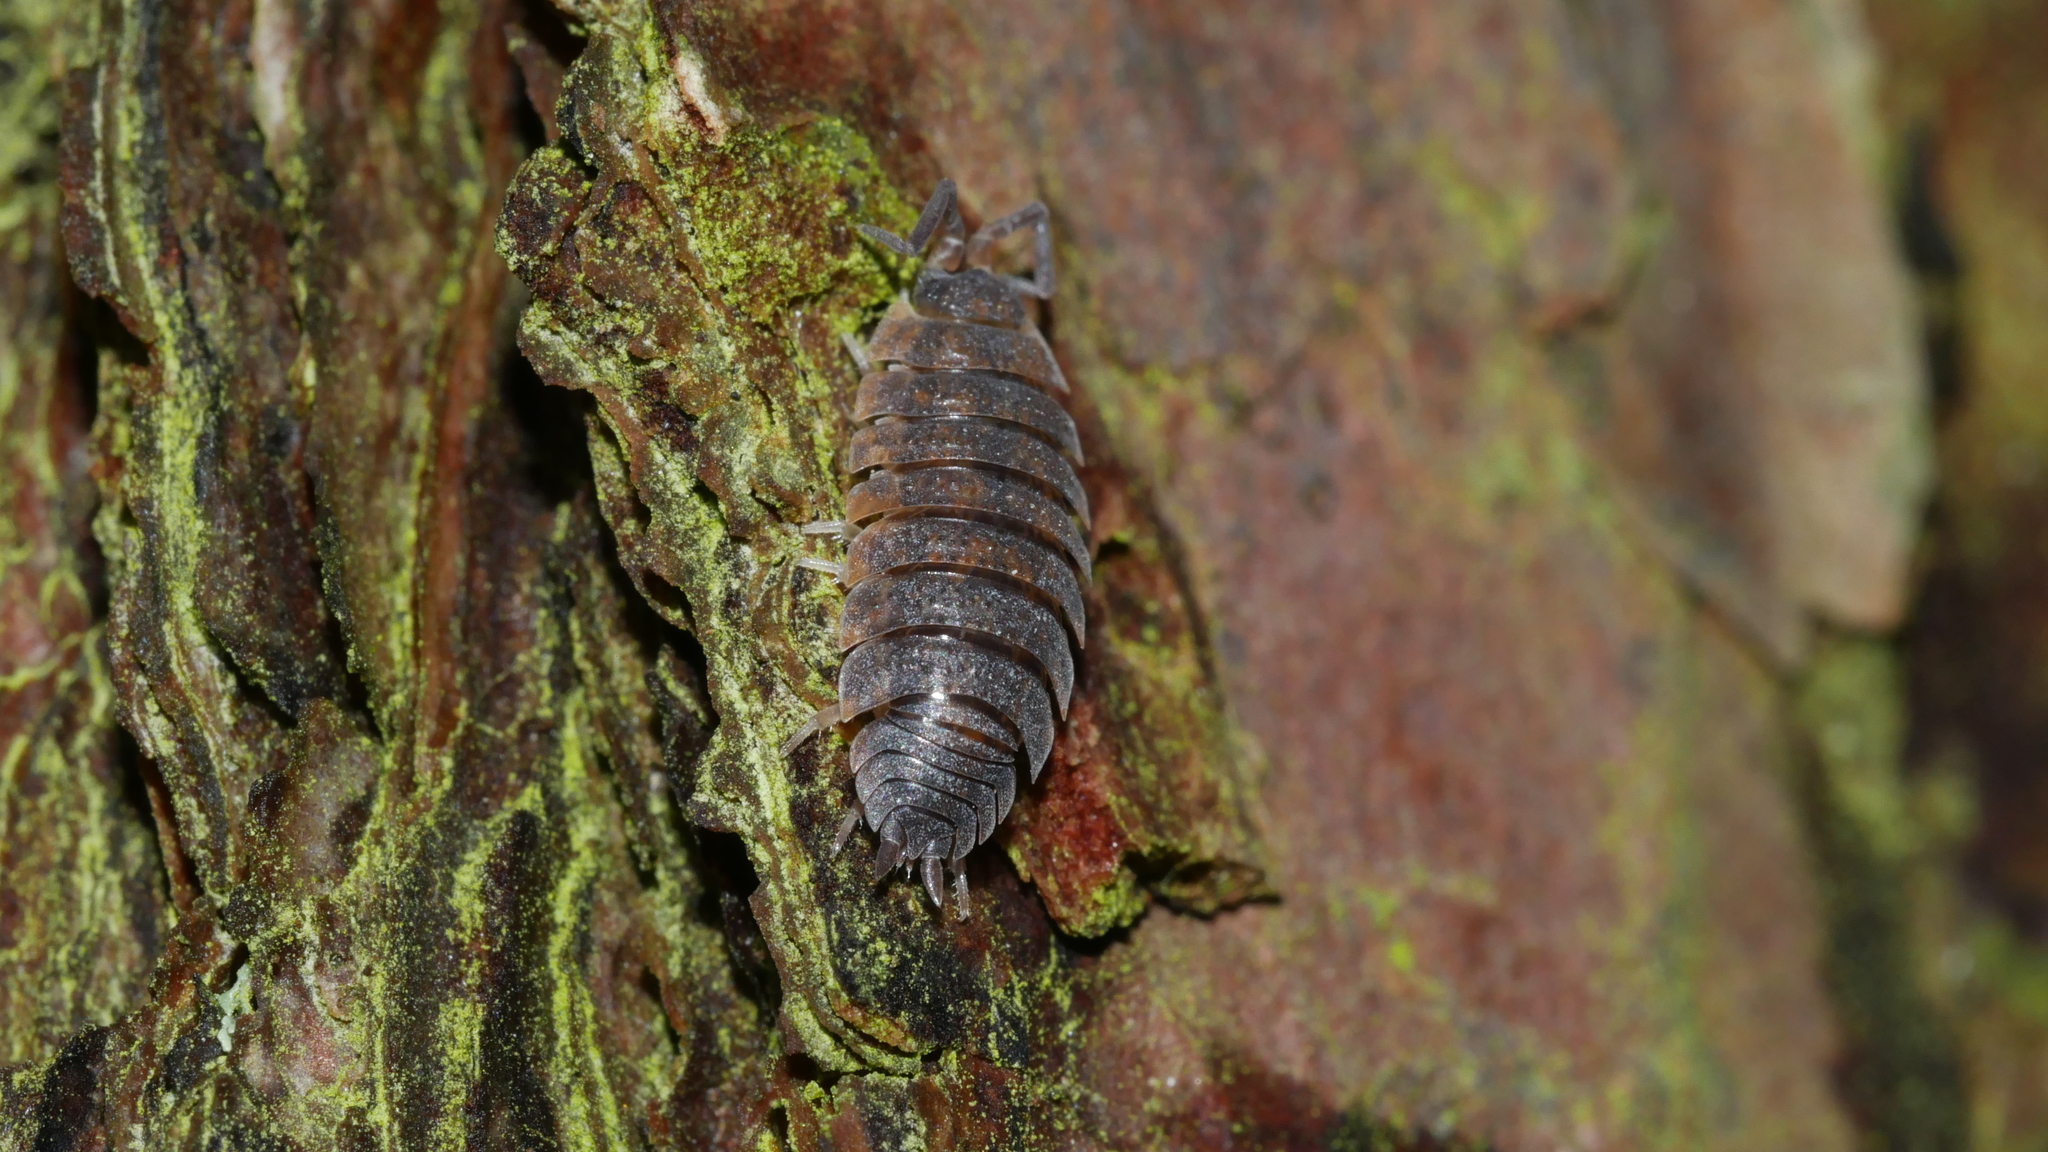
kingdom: Animalia
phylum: Arthropoda
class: Malacostraca
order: Isopoda
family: Porcellionidae
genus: Porcellio
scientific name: Porcellio scaber
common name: Common rough woodlouse
